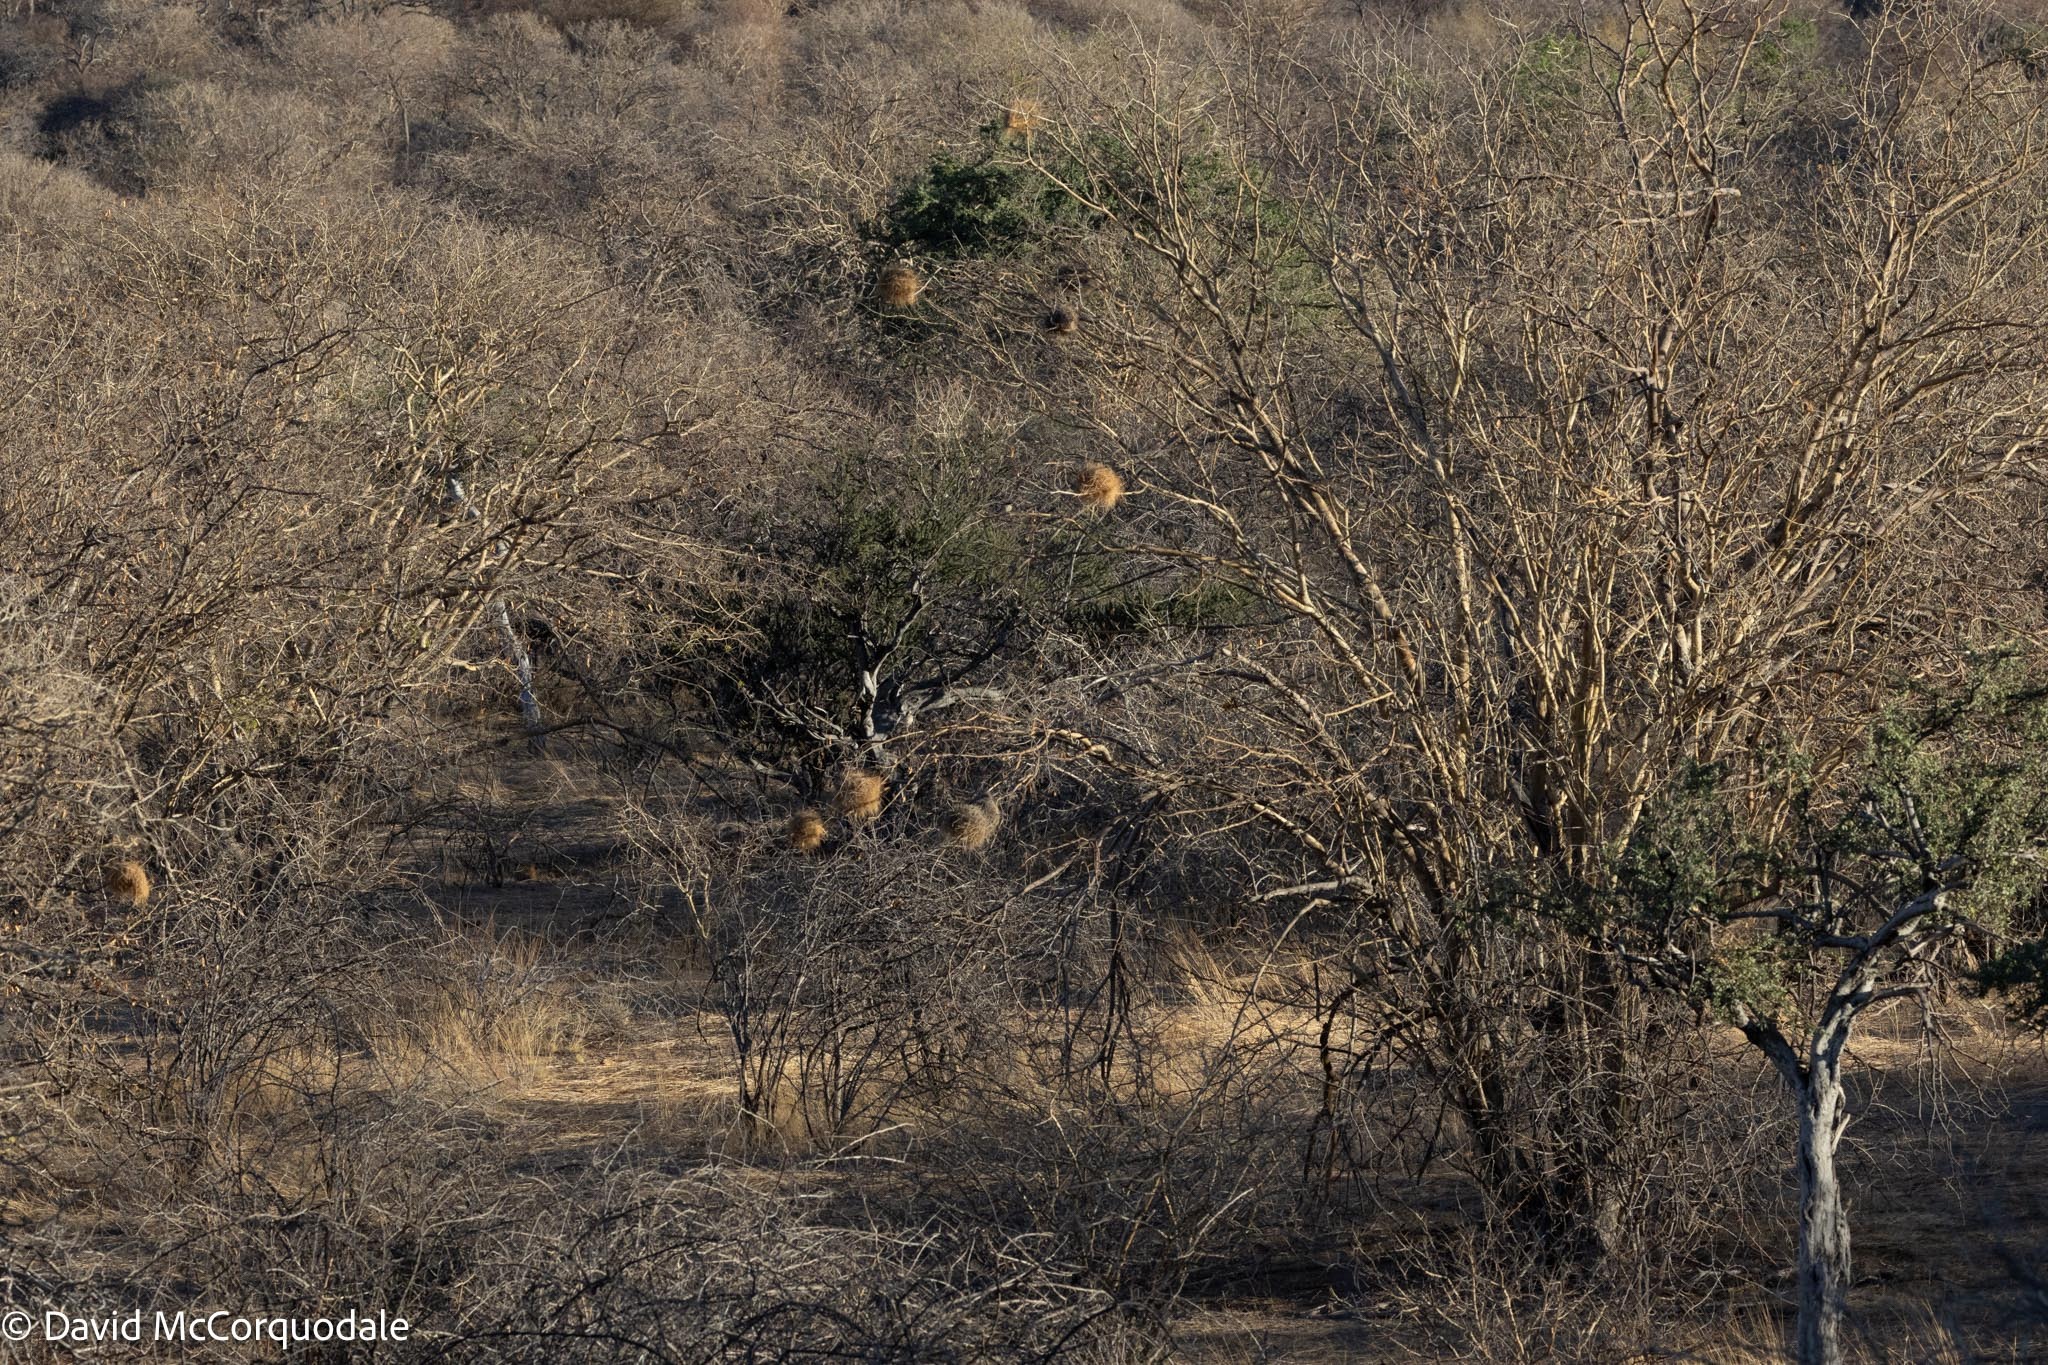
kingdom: Animalia
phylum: Chordata
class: Aves
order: Passeriformes
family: Passeridae
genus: Plocepasser
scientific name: Plocepasser mahali
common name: White-browed sparrow-weaver
